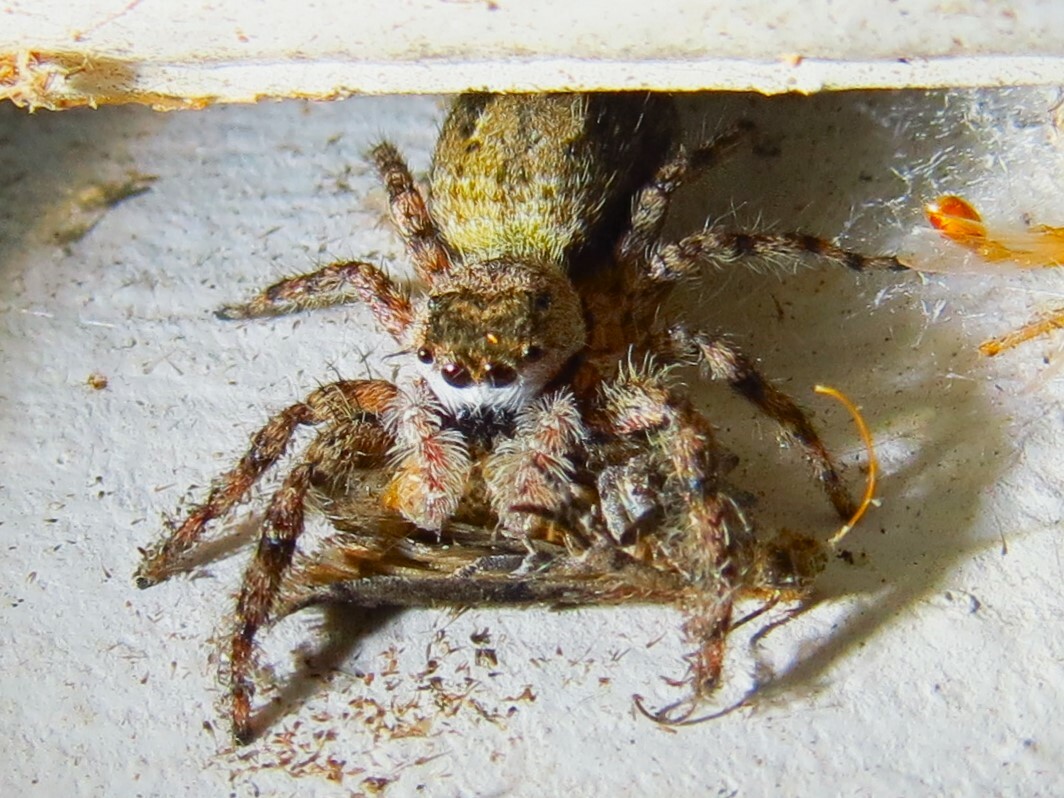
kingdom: Animalia
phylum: Arthropoda
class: Arachnida
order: Araneae
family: Salticidae
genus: Platycryptus
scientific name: Platycryptus undatus
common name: Tan jumping spider
